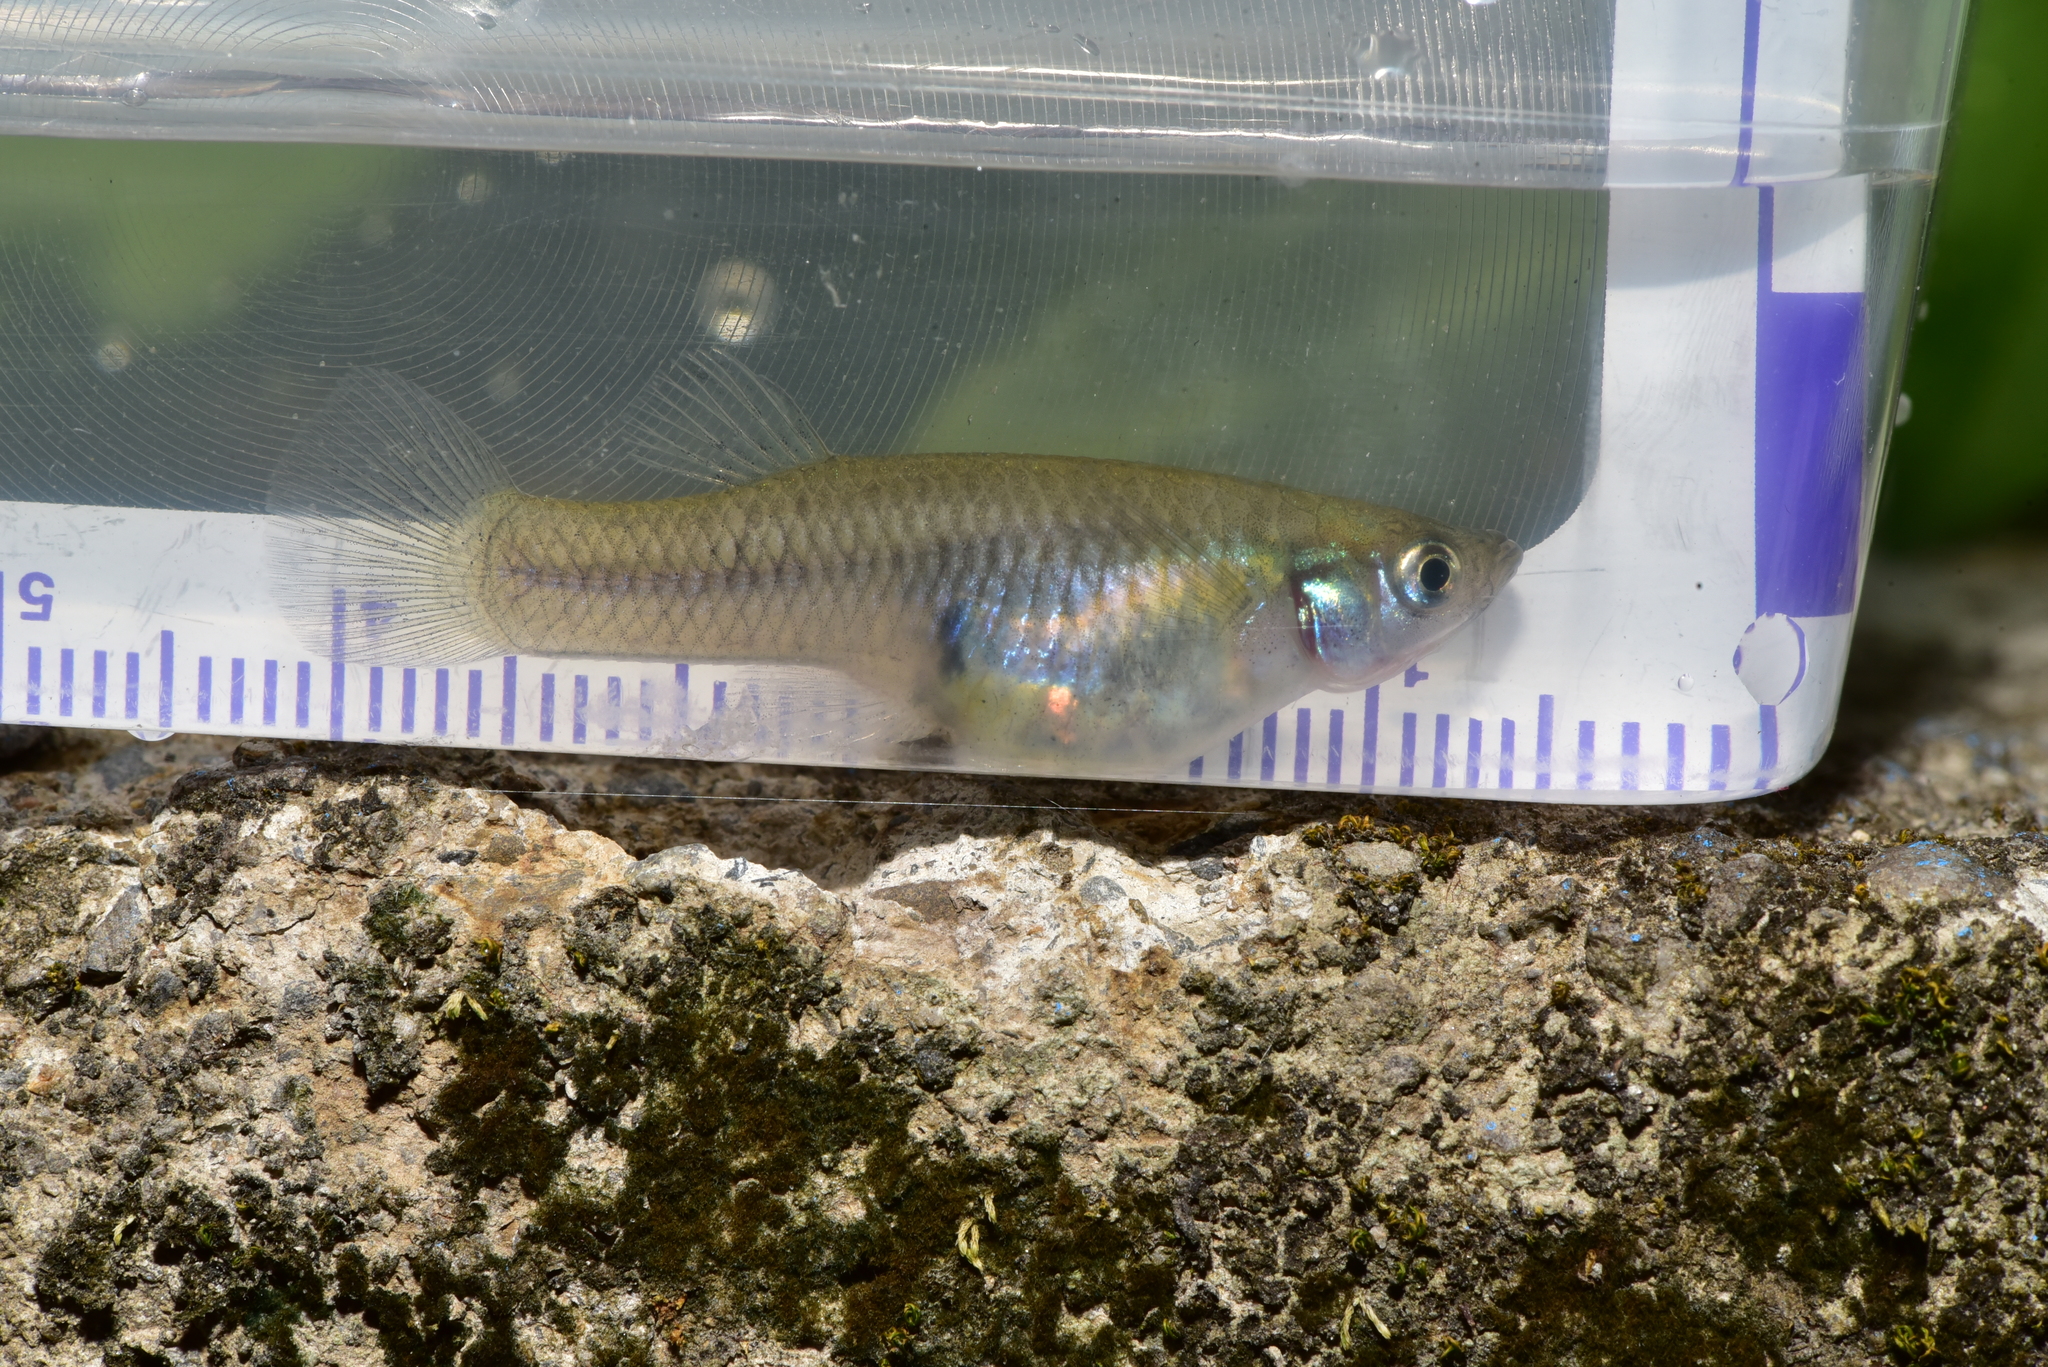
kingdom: Animalia
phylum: Chordata
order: Cyprinodontiformes
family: Poeciliidae
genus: Gambusia
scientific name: Gambusia affinis
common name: Mosquitofish
